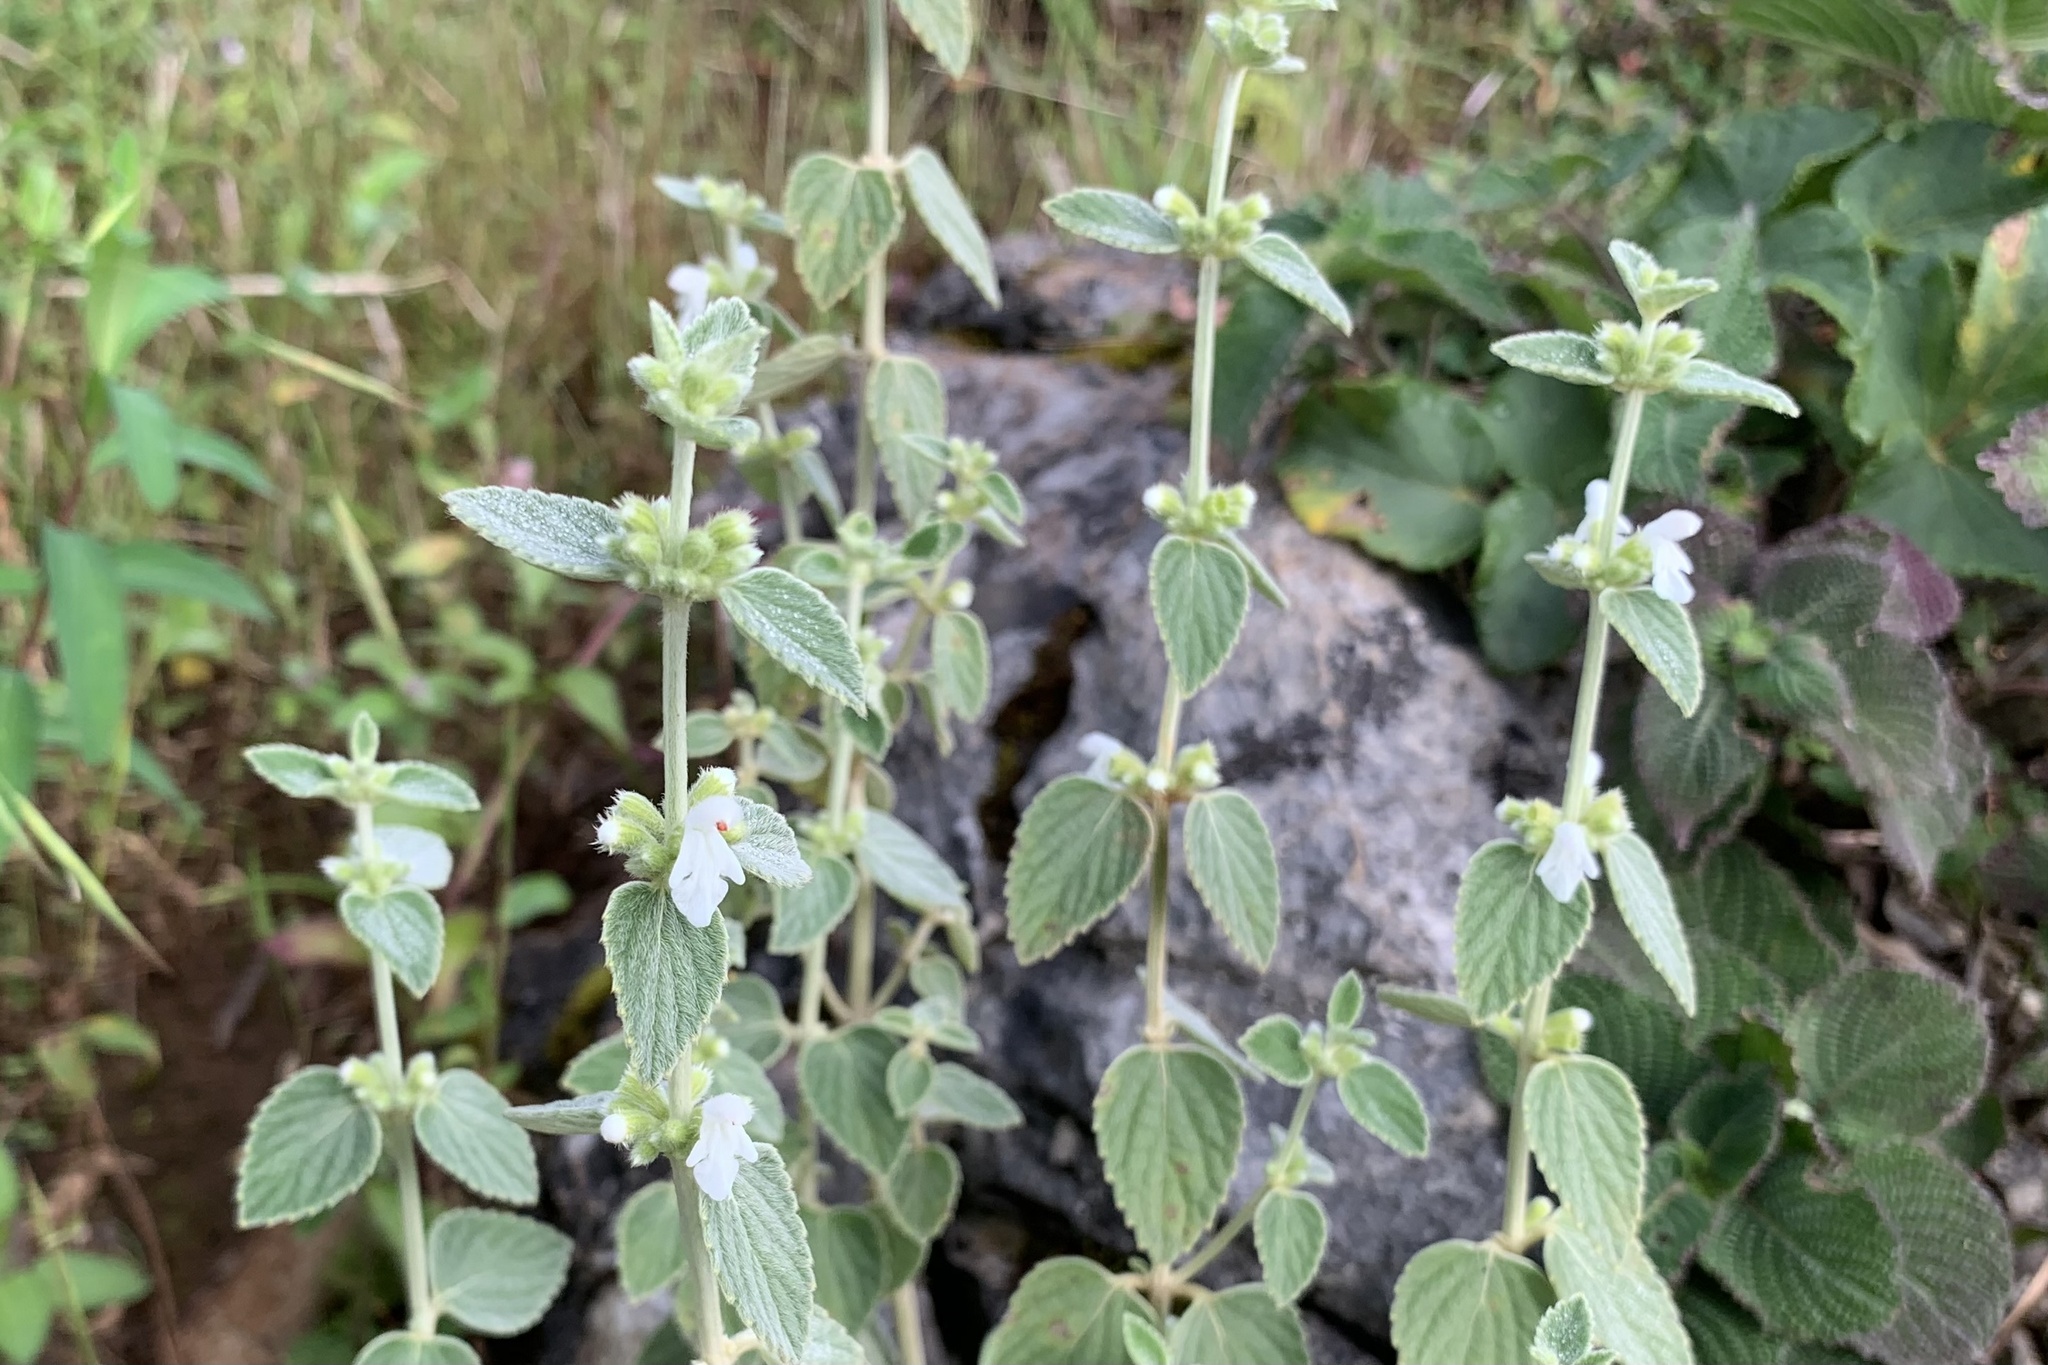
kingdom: Plantae
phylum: Tracheophyta
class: Magnoliopsida
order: Lamiales
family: Lamiaceae
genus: Leucas
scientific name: Leucas lanata
